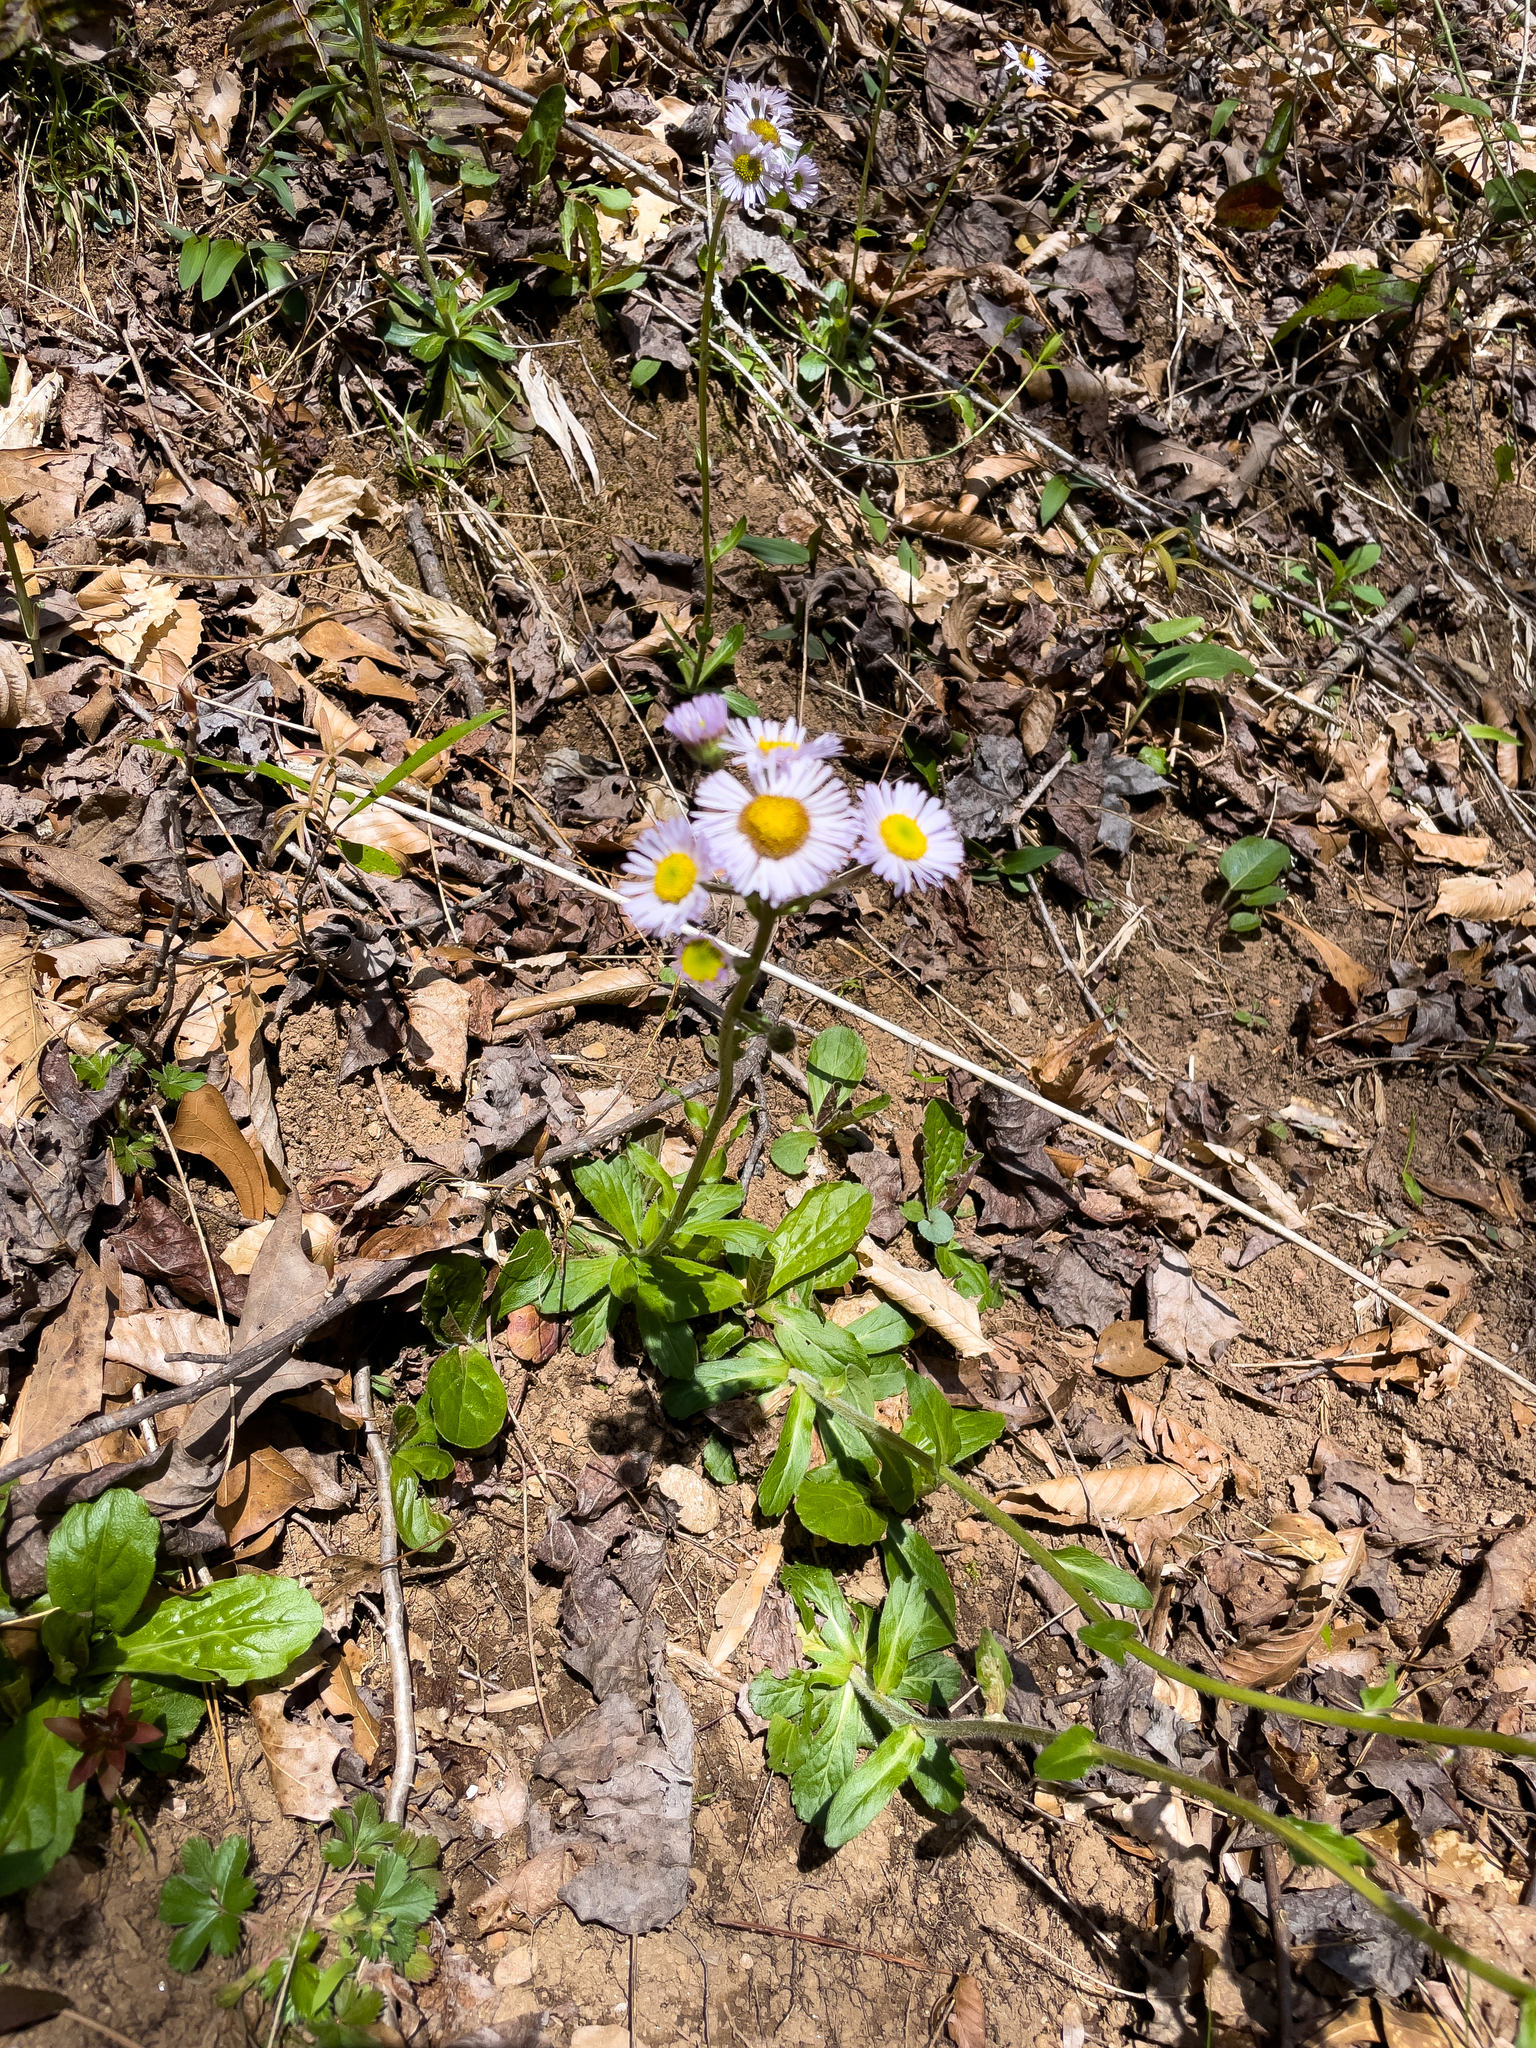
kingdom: Plantae
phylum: Tracheophyta
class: Magnoliopsida
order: Asterales
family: Asteraceae
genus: Erigeron
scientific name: Erigeron pulchellus
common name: Hairy fleabane
